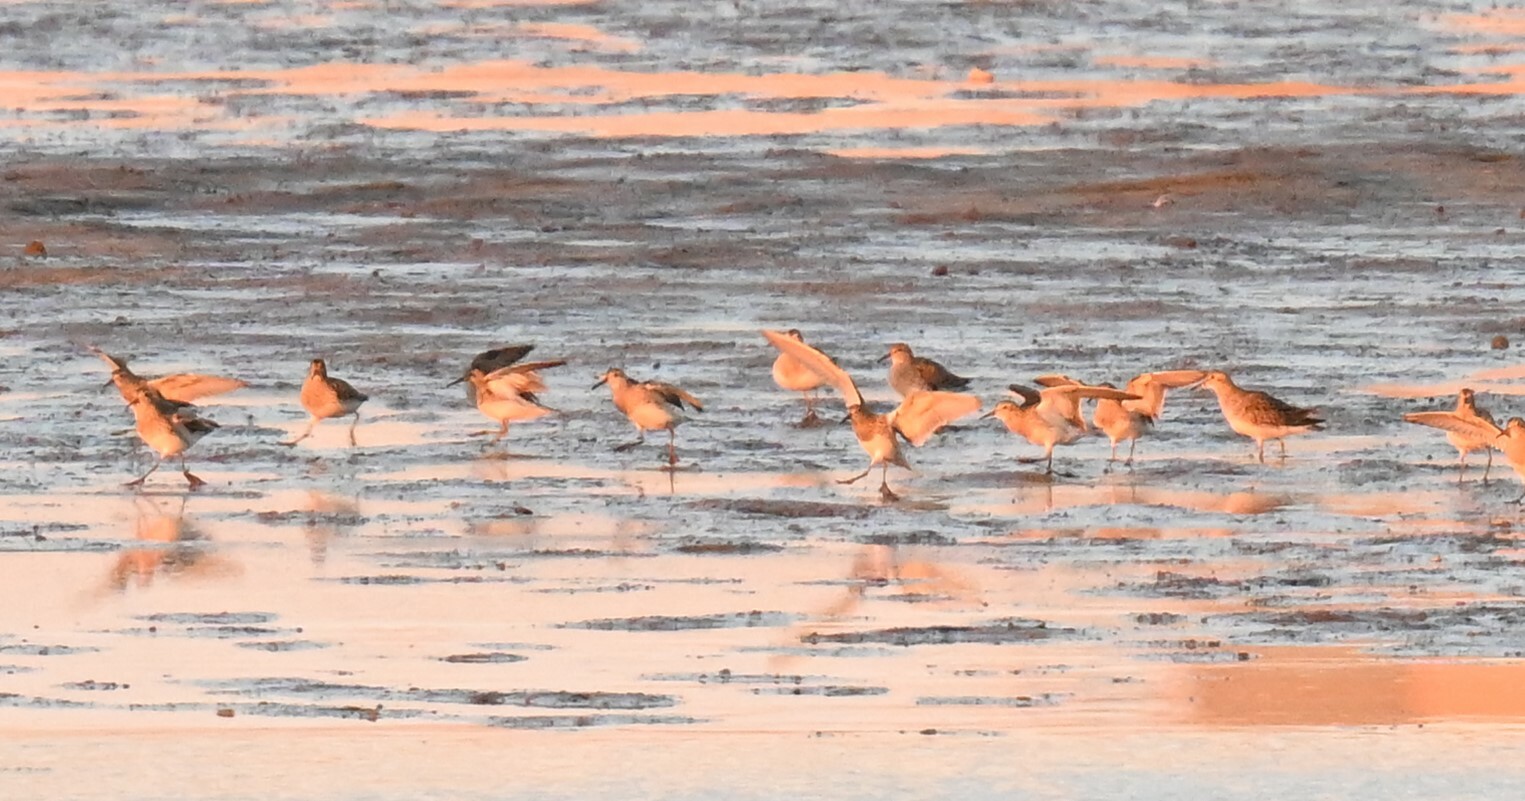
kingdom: Animalia
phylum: Chordata
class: Aves
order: Charadriiformes
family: Scolopacidae
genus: Calidris
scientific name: Calidris melanotos
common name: Pectoral sandpiper
